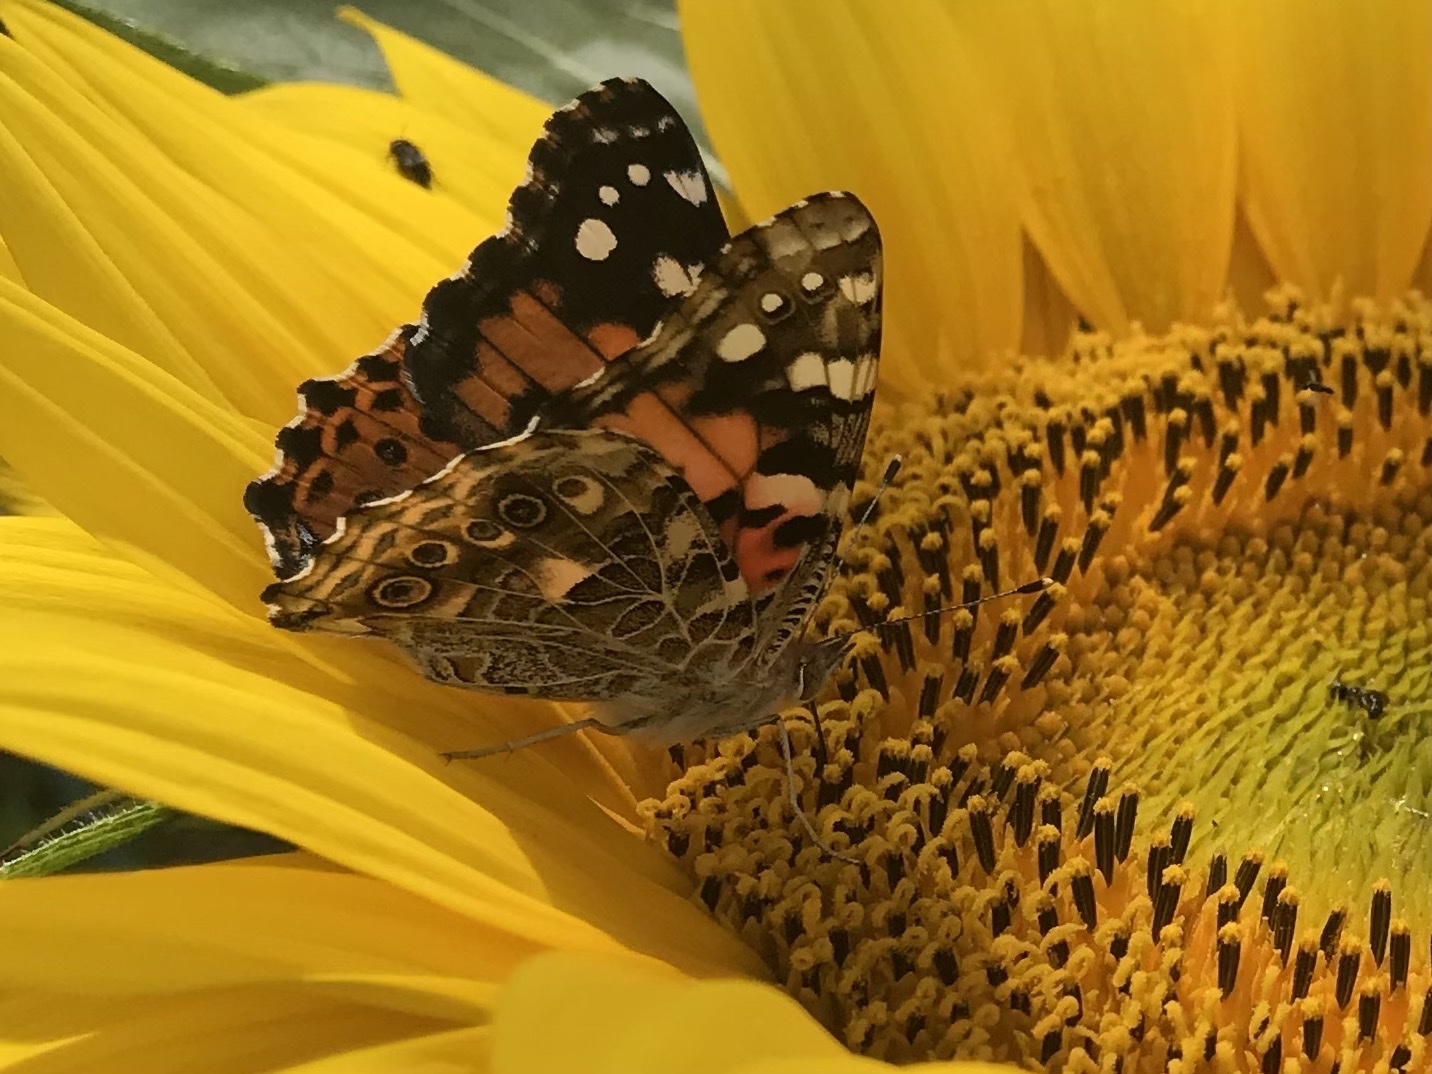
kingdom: Animalia
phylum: Arthropoda
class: Insecta
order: Lepidoptera
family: Nymphalidae
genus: Vanessa
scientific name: Vanessa cardui
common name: Painted lady
